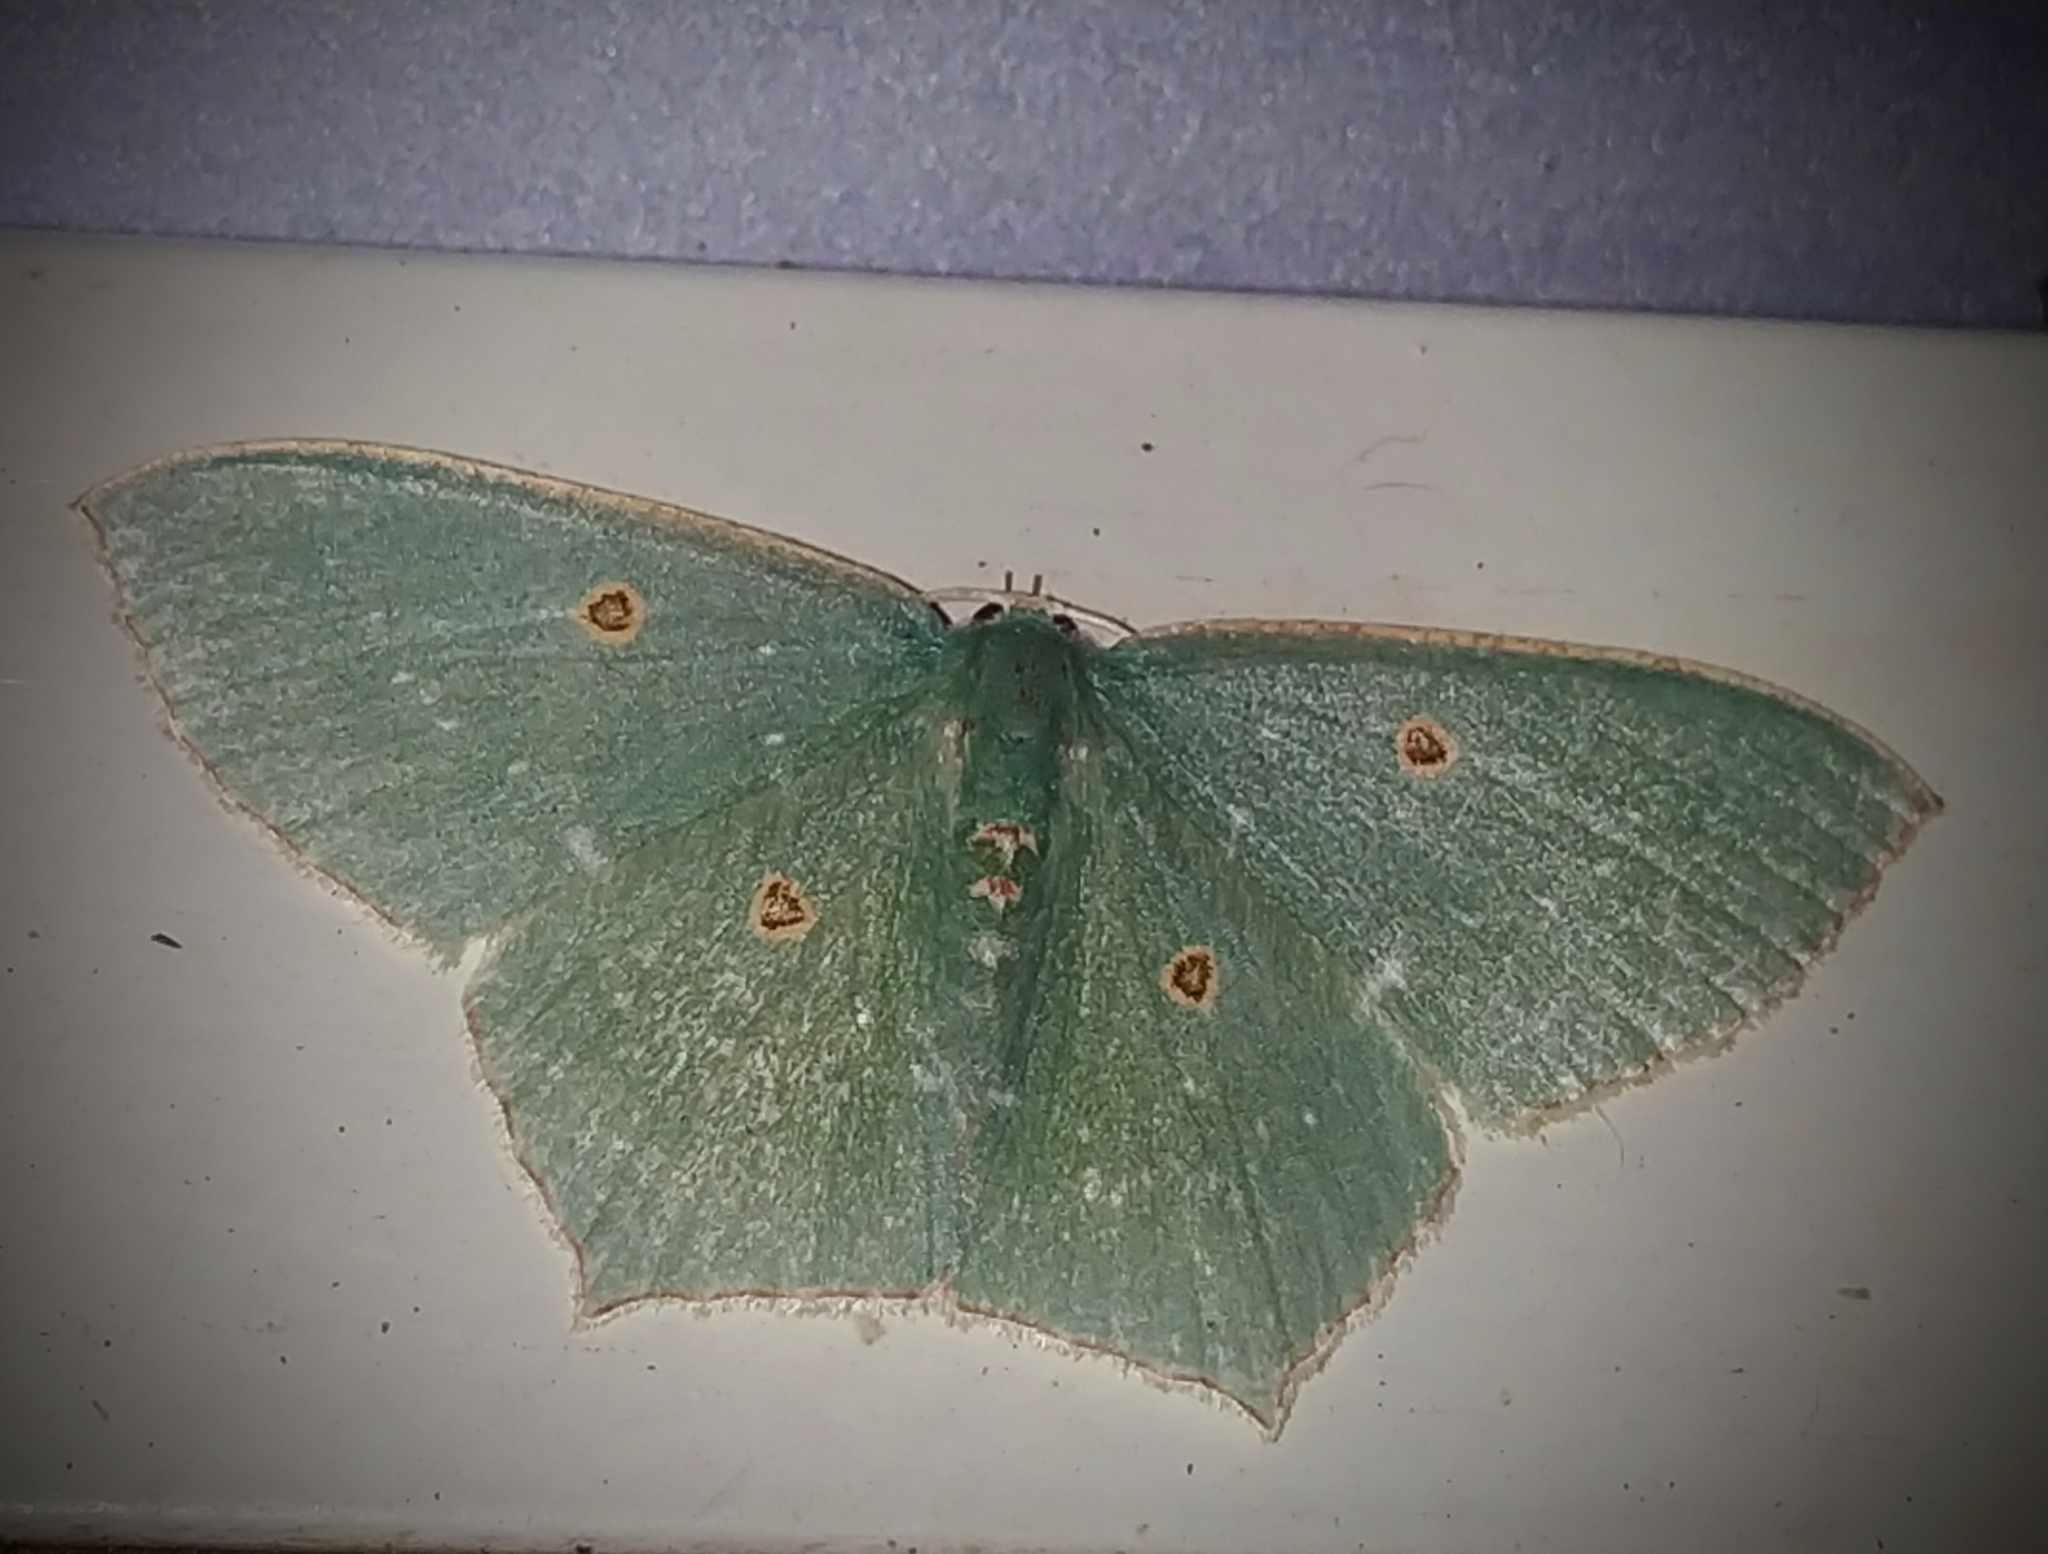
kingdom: Animalia
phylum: Arthropoda
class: Insecta
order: Lepidoptera
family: Geometridae
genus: Cyclothea
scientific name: Cyclothea disjuncta
